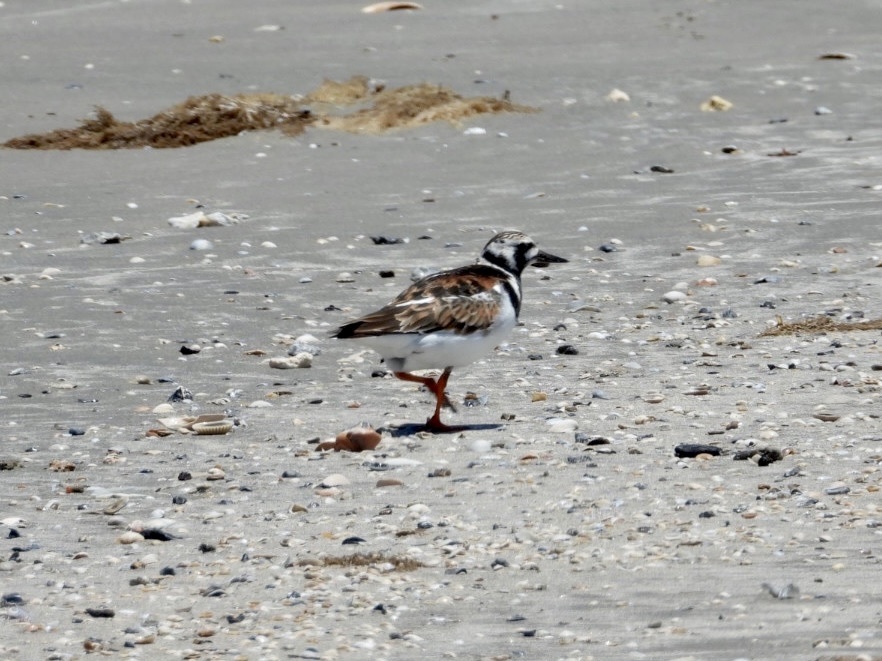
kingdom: Animalia
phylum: Chordata
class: Aves
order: Charadriiformes
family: Scolopacidae
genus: Arenaria
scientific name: Arenaria interpres
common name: Ruddy turnstone
